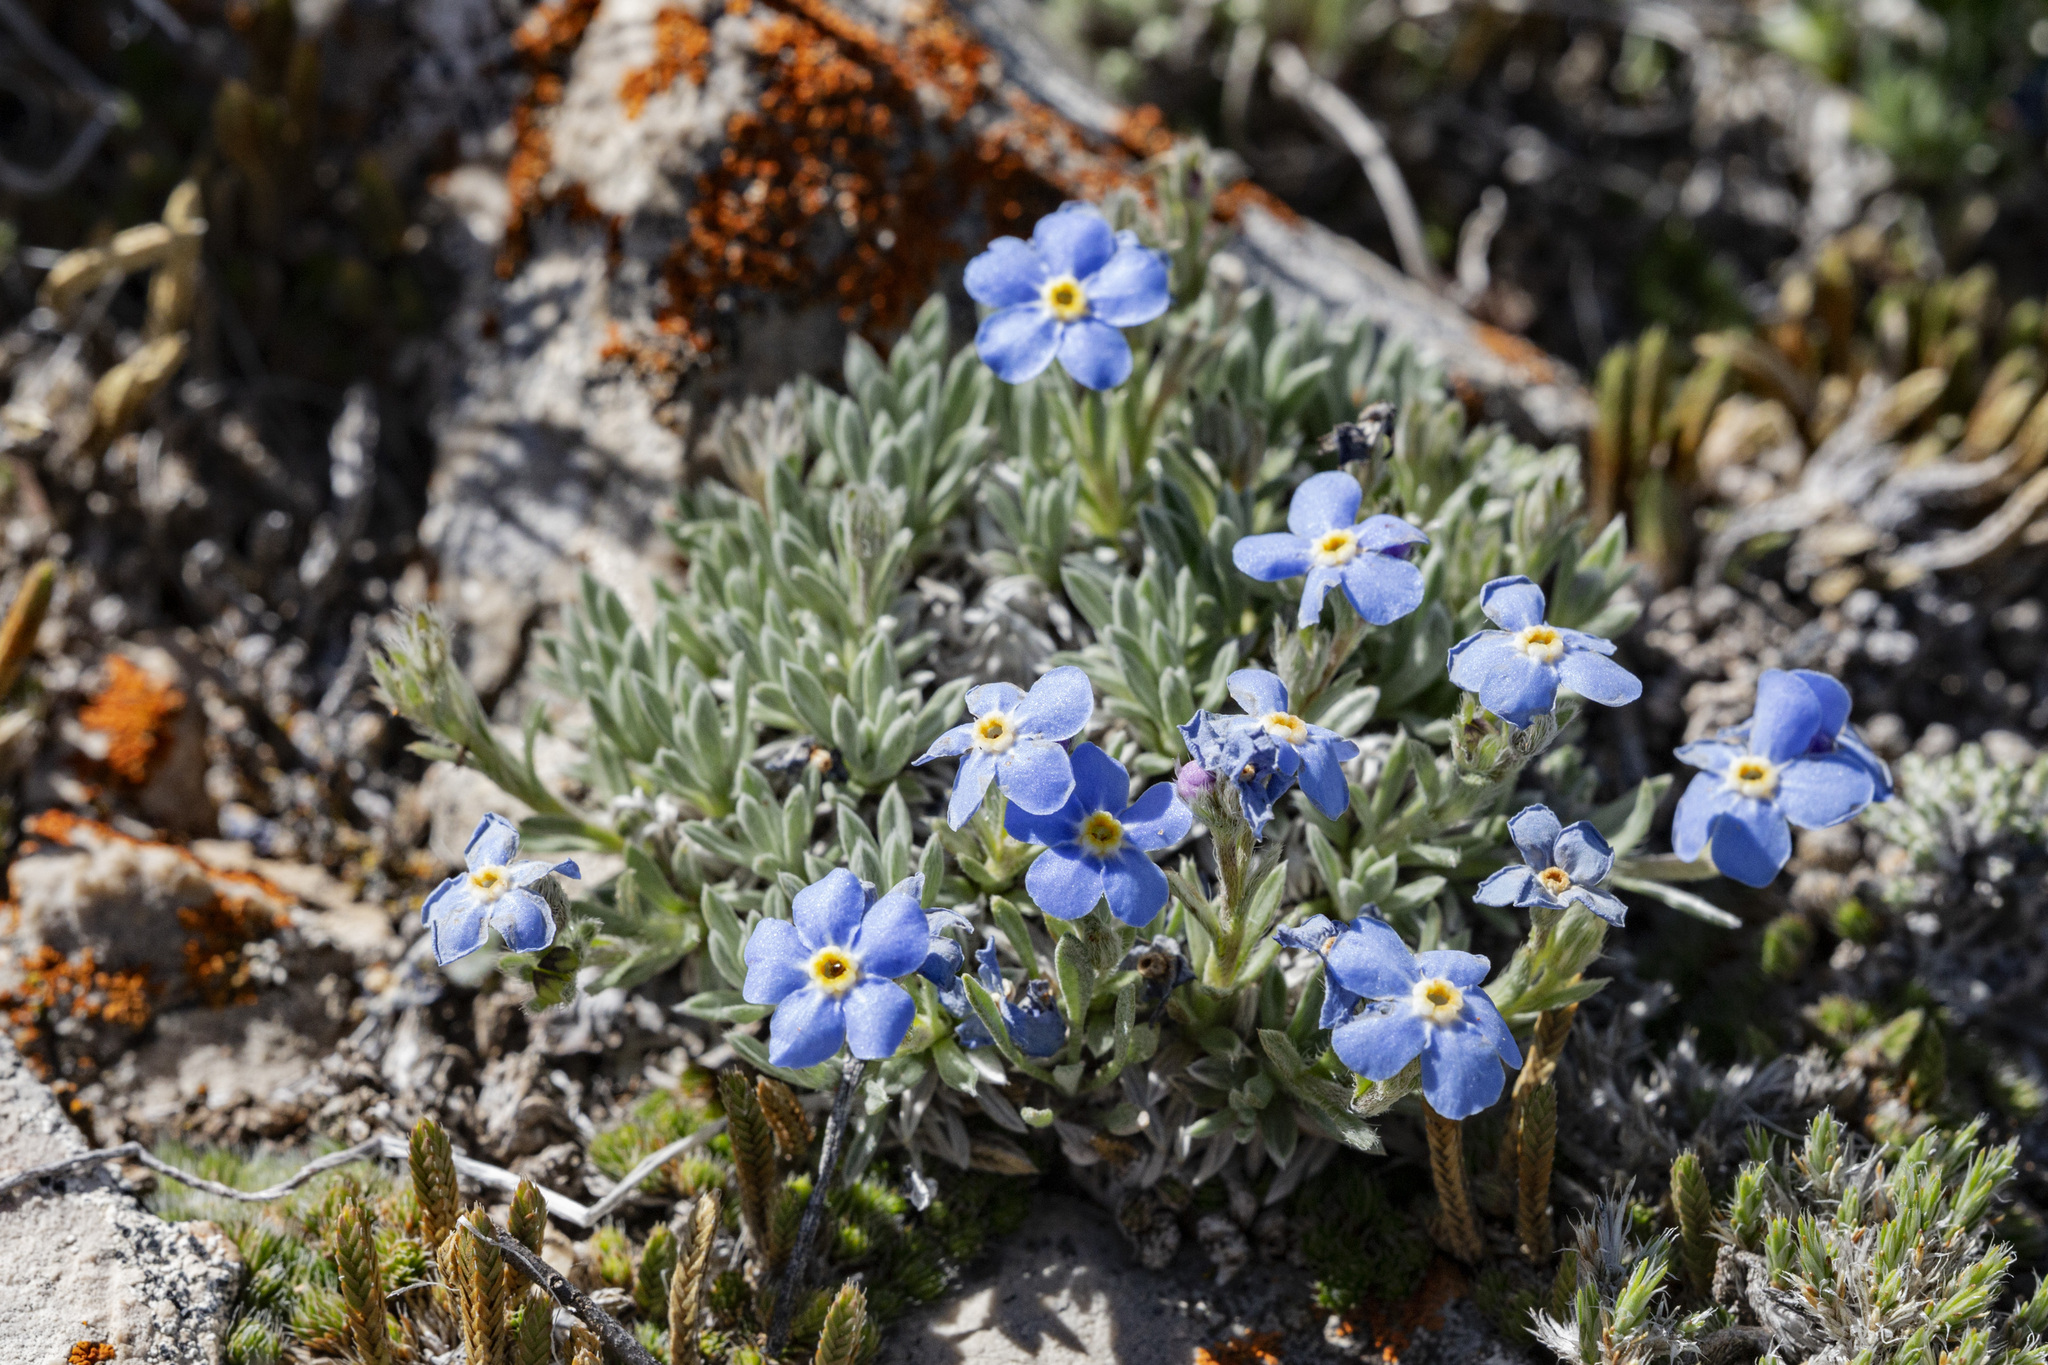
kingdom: Plantae
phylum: Tracheophyta
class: Magnoliopsida
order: Boraginales
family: Boraginaceae
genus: Eritrichium
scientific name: Eritrichium howardii
